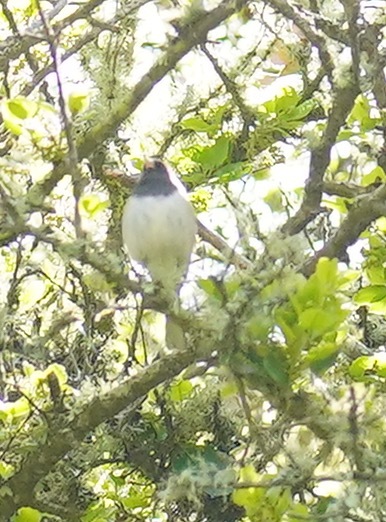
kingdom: Animalia
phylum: Chordata
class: Aves
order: Passeriformes
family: Passerellidae
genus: Junco
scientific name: Junco hyemalis
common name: Dark-eyed junco
